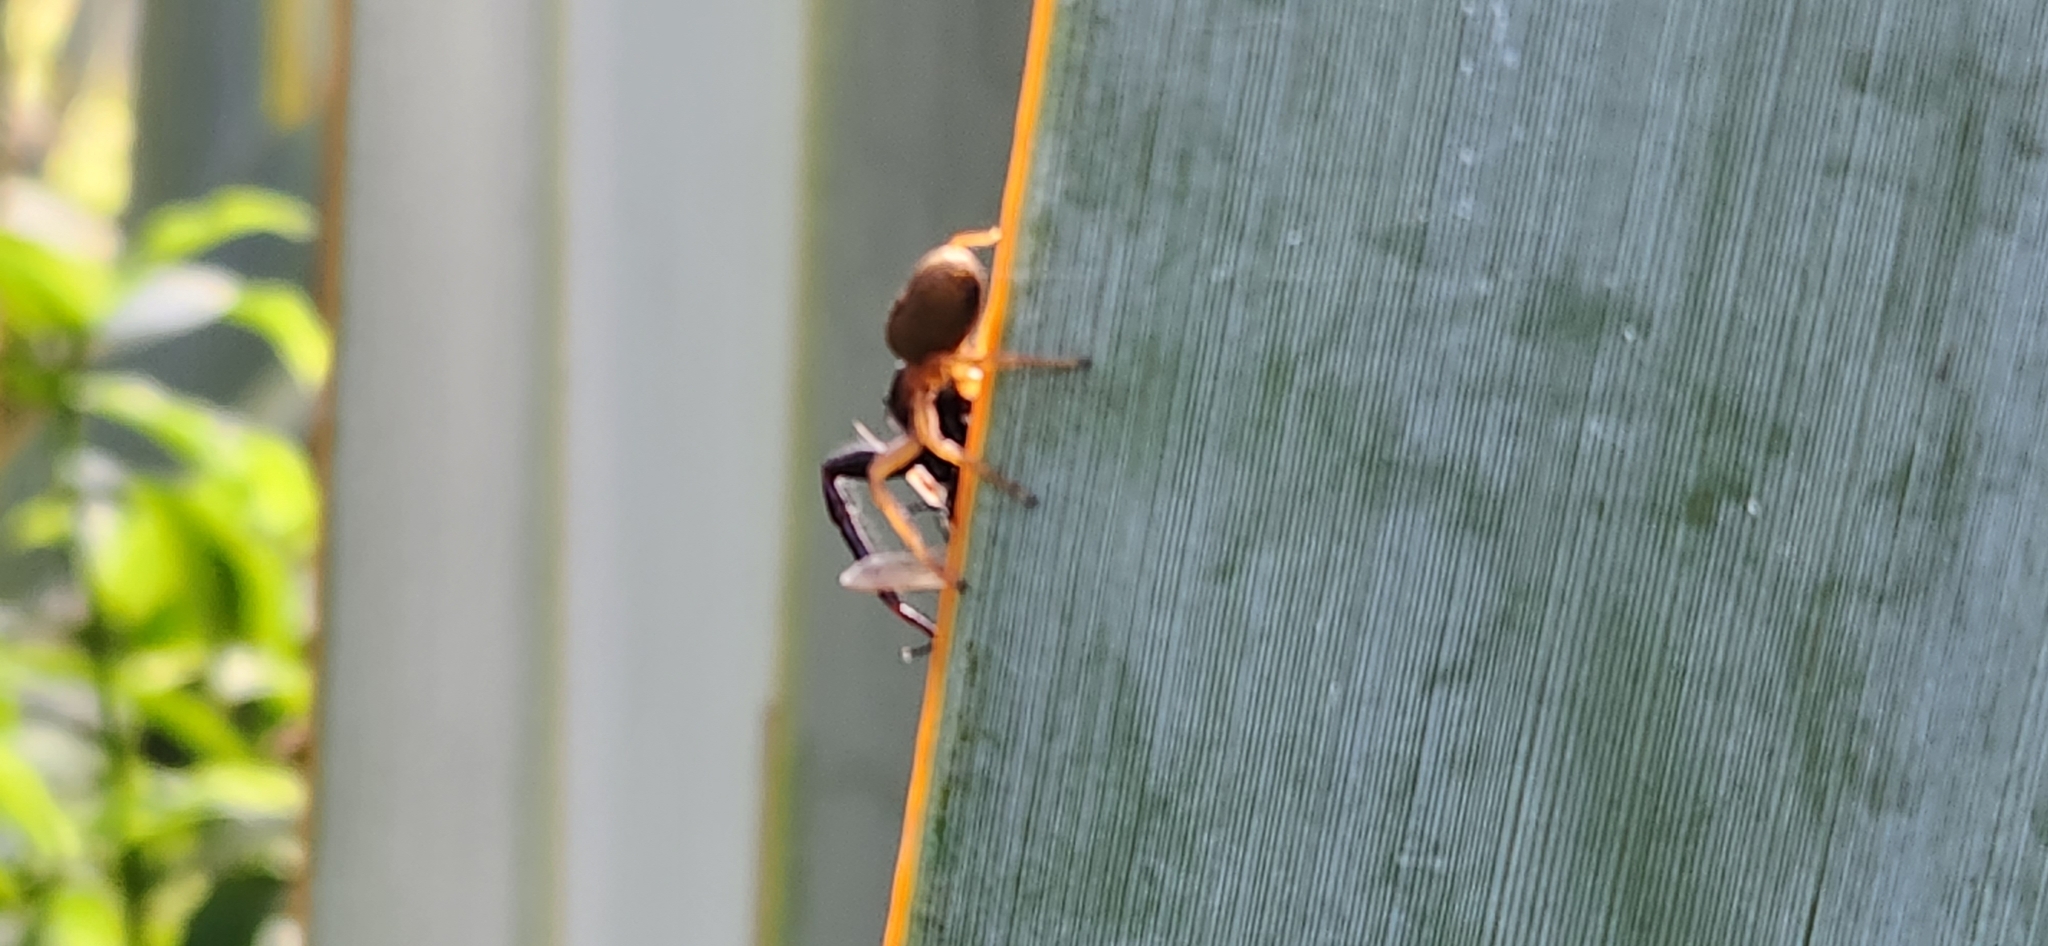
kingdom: Animalia
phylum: Arthropoda
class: Arachnida
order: Araneae
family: Salticidae
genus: Trite
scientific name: Trite planiceps
